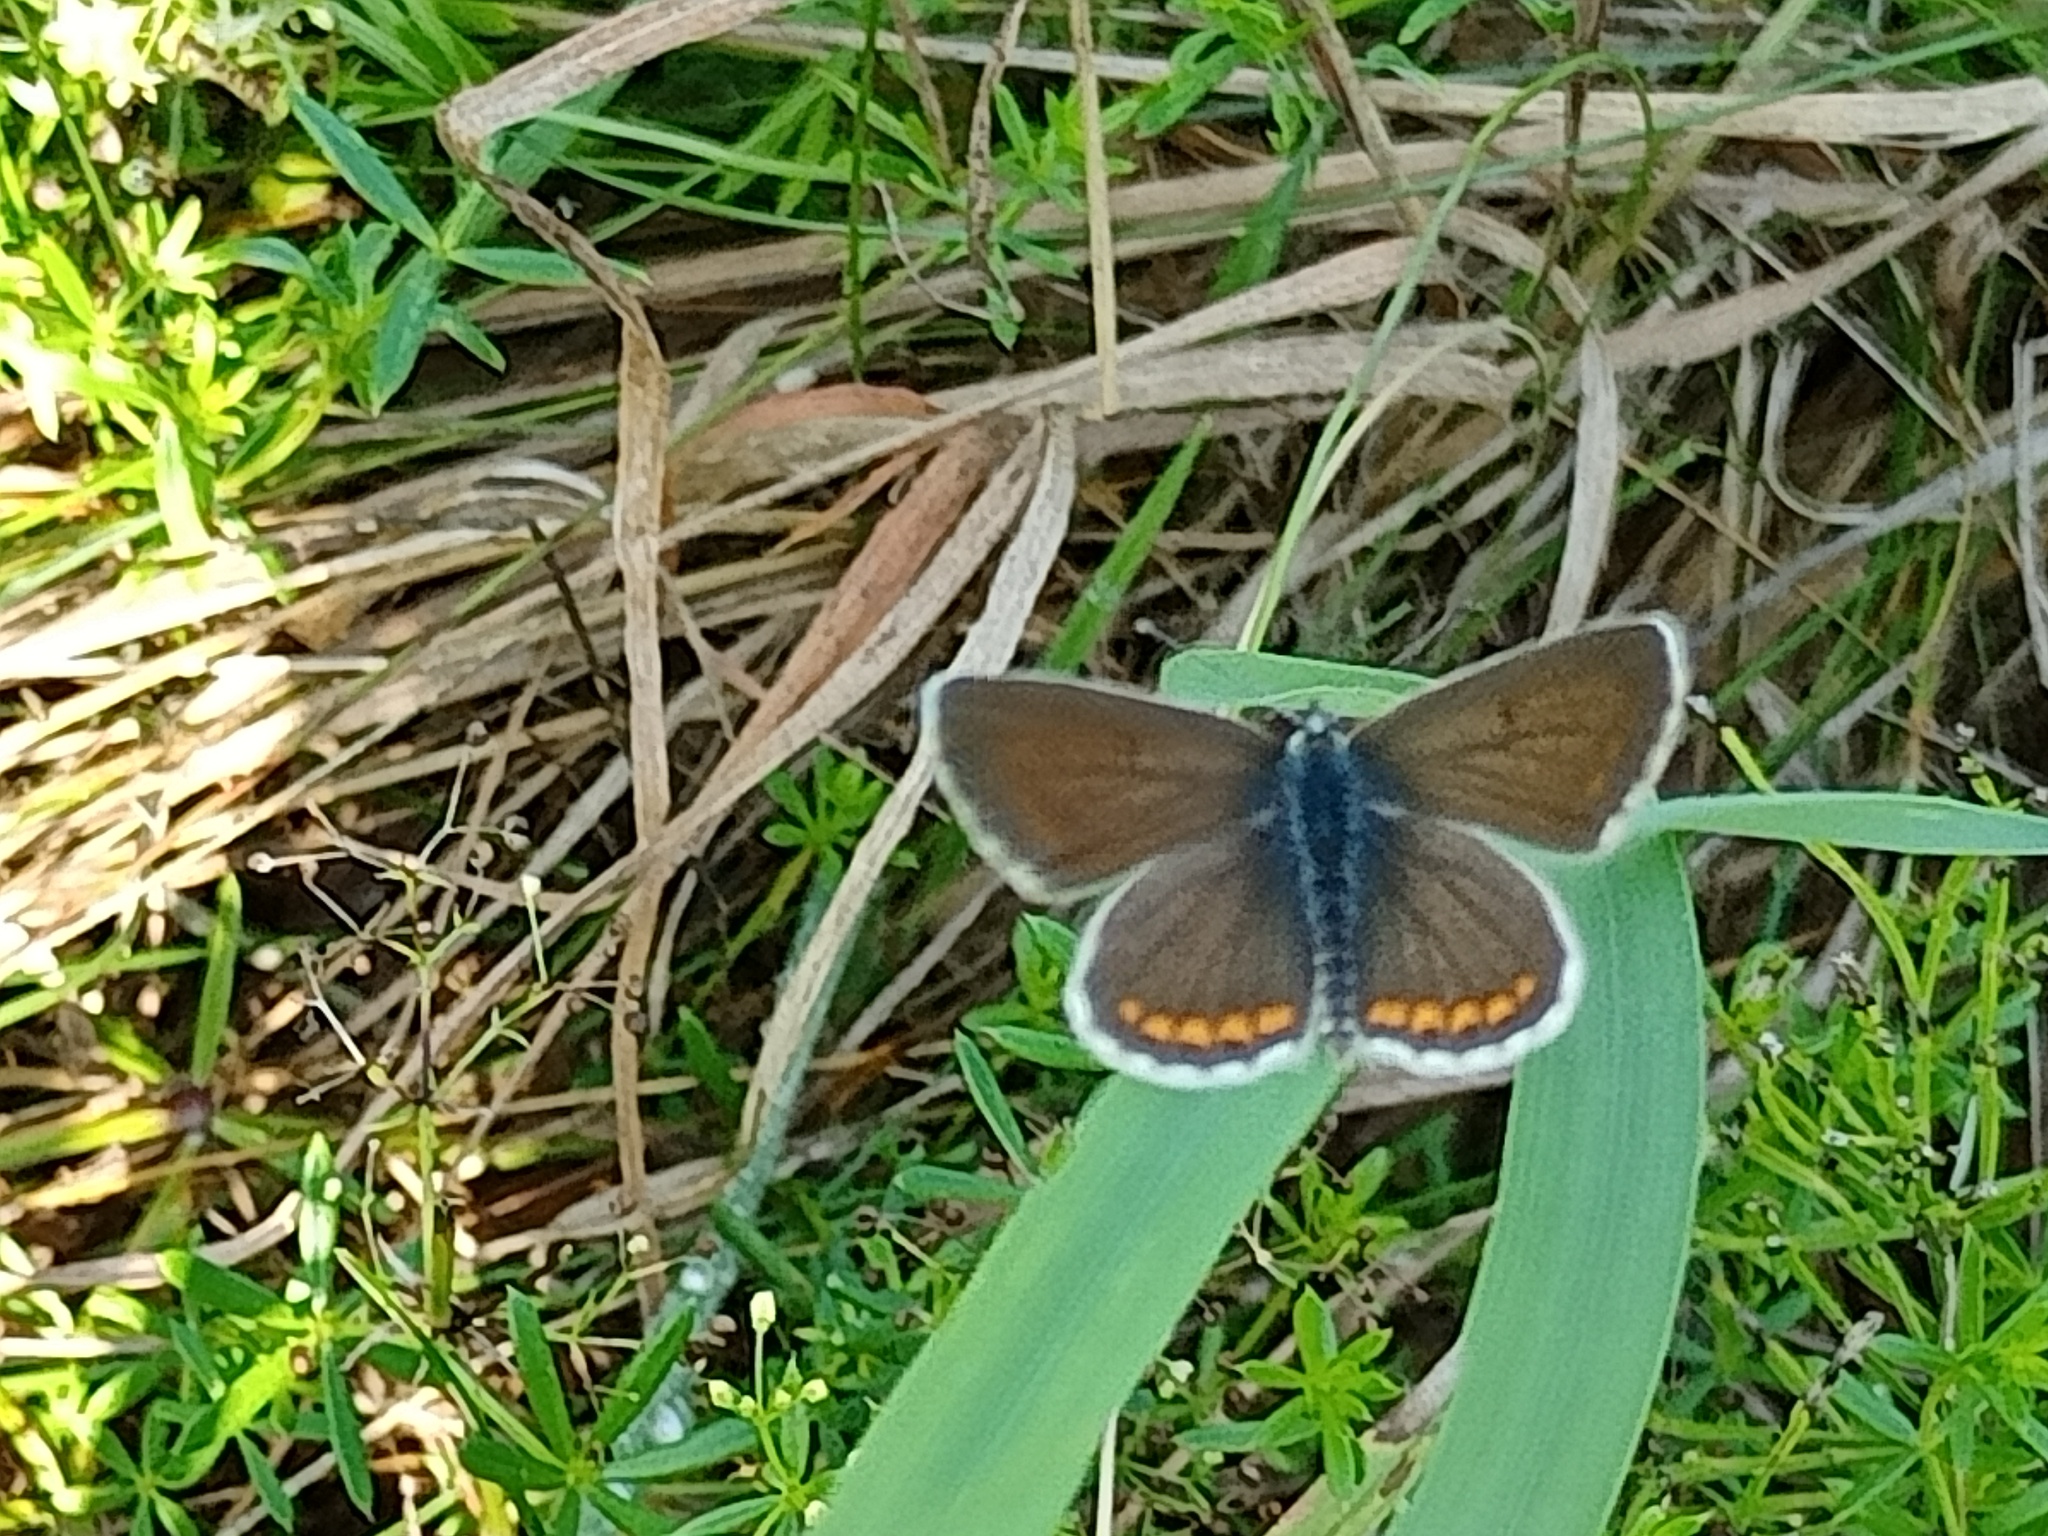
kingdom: Animalia
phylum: Arthropoda
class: Insecta
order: Lepidoptera
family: Lycaenidae
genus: Aricia
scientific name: Aricia agestis
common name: Brown argus
